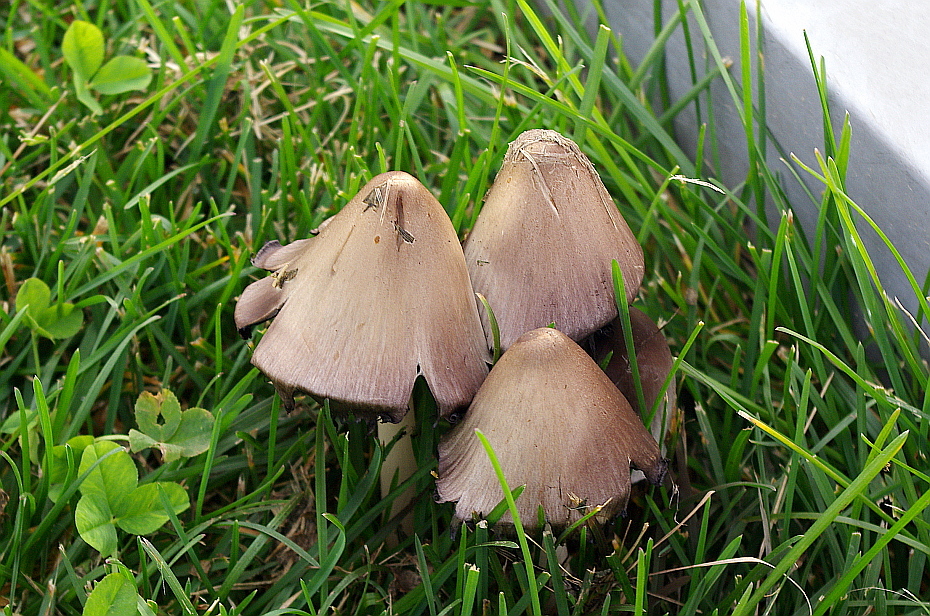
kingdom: Fungi
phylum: Basidiomycota
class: Agaricomycetes
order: Agaricales
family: Psathyrellaceae
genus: Coprinopsis
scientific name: Coprinopsis atramentaria
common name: Common ink-cap
